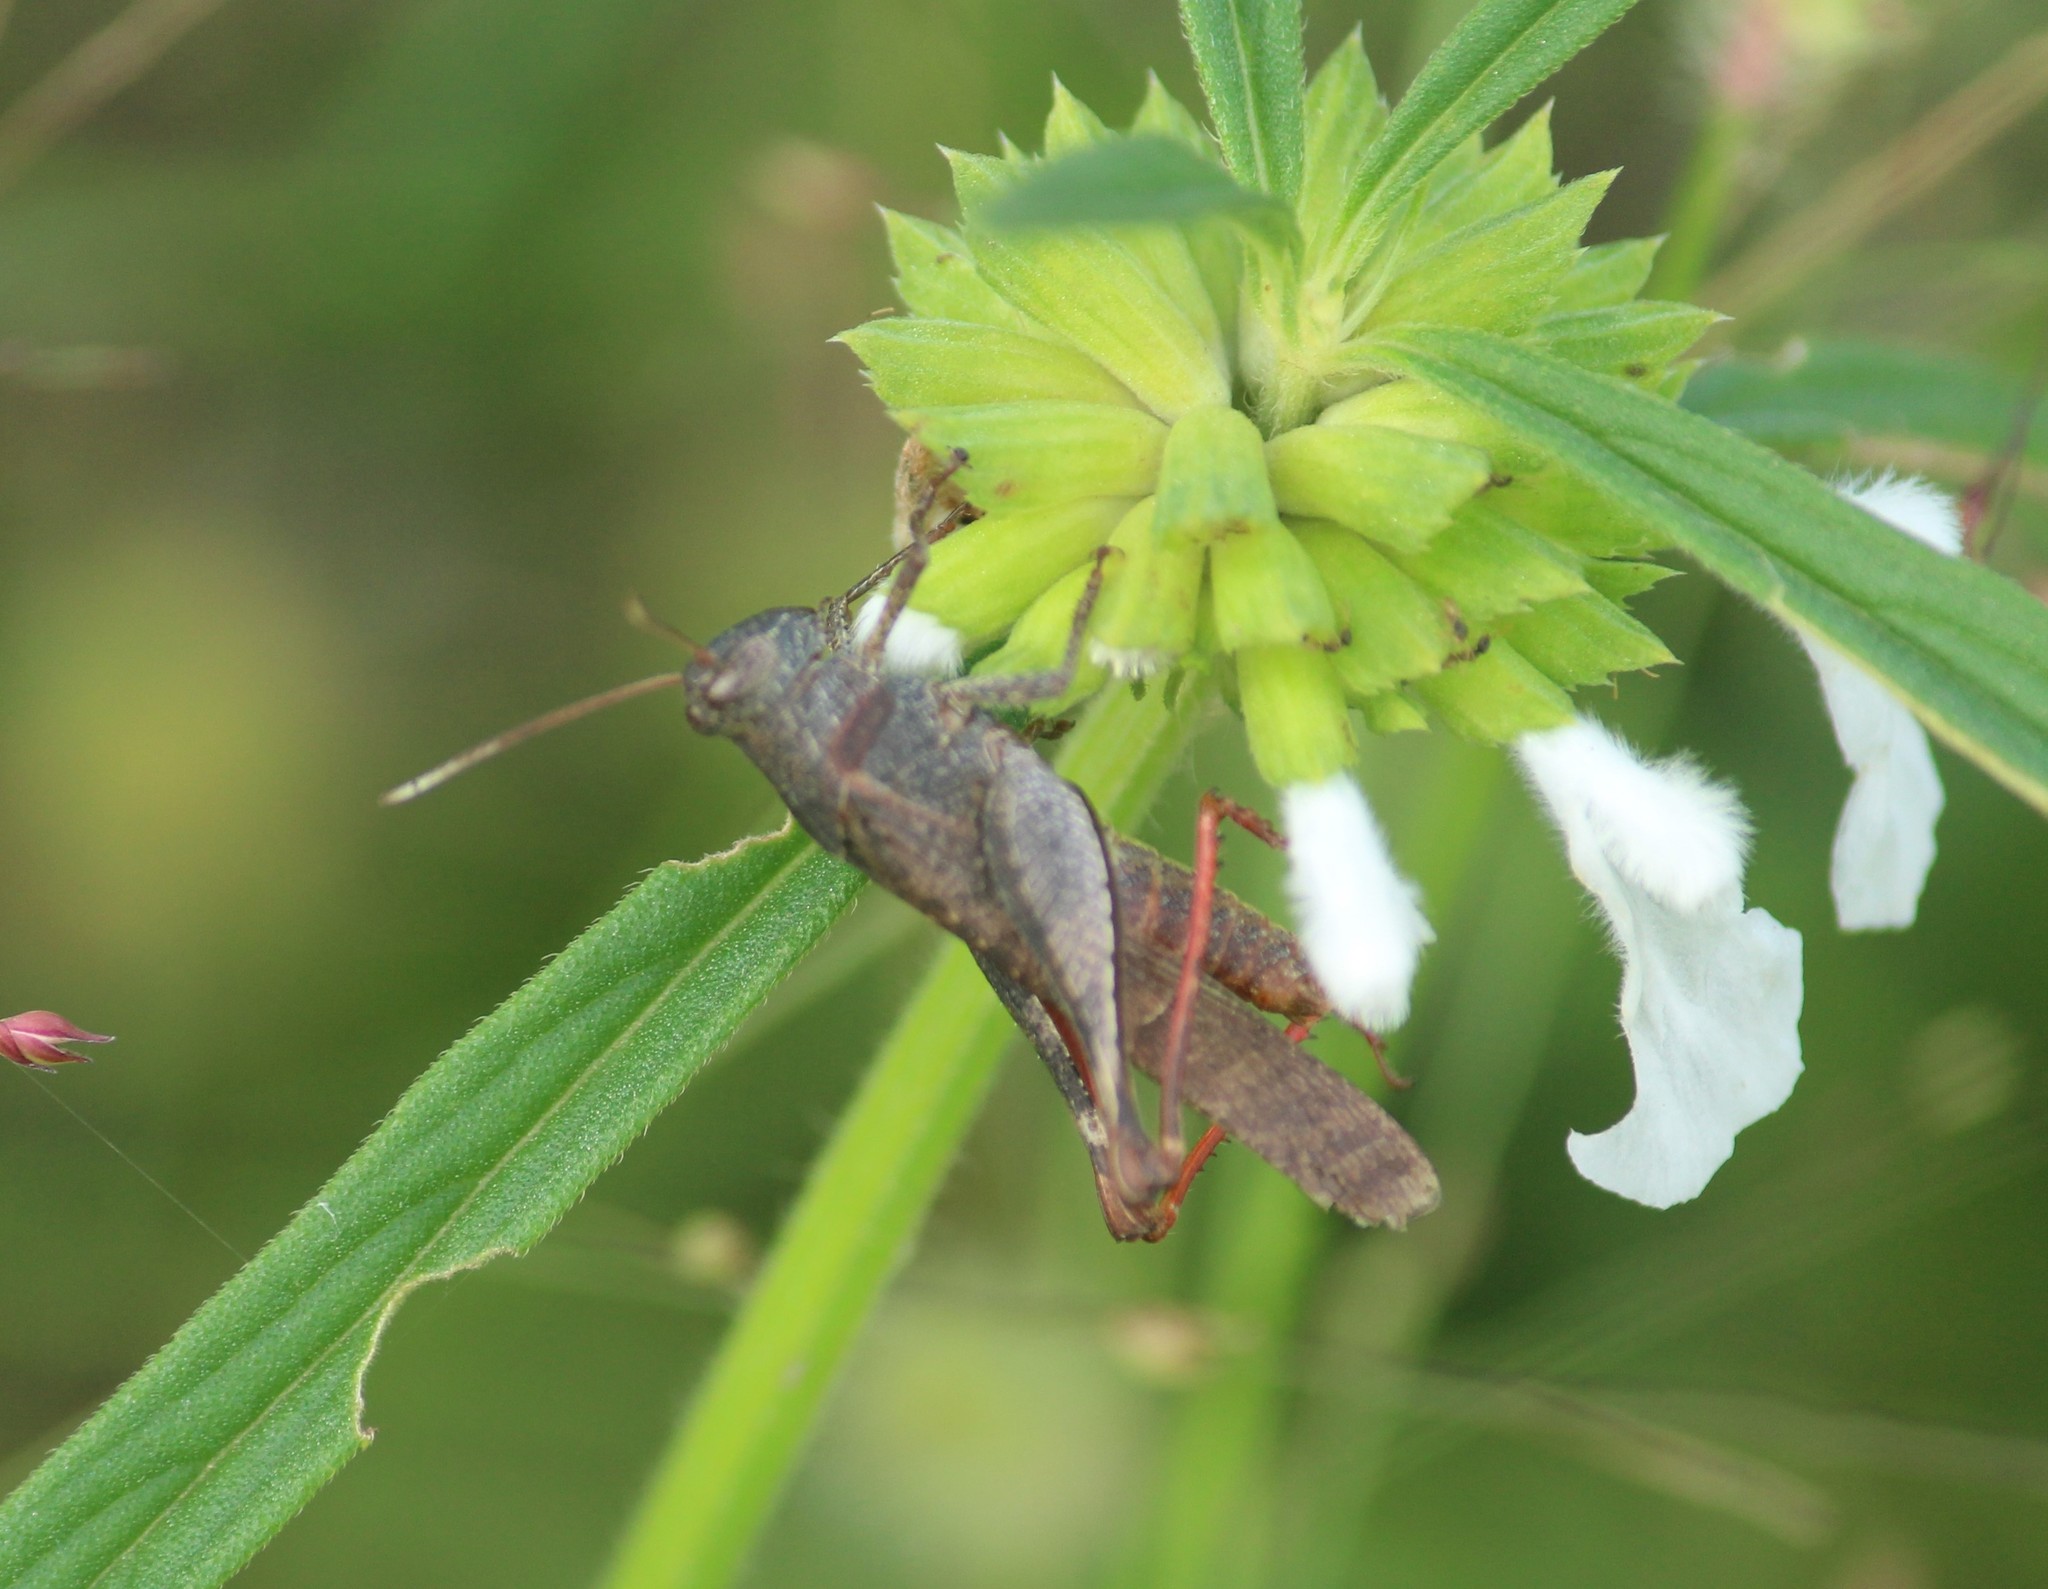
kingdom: Animalia
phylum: Arthropoda
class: Insecta
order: Orthoptera
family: Acrididae
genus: Eucoptacra
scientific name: Eucoptacra praemorsa
